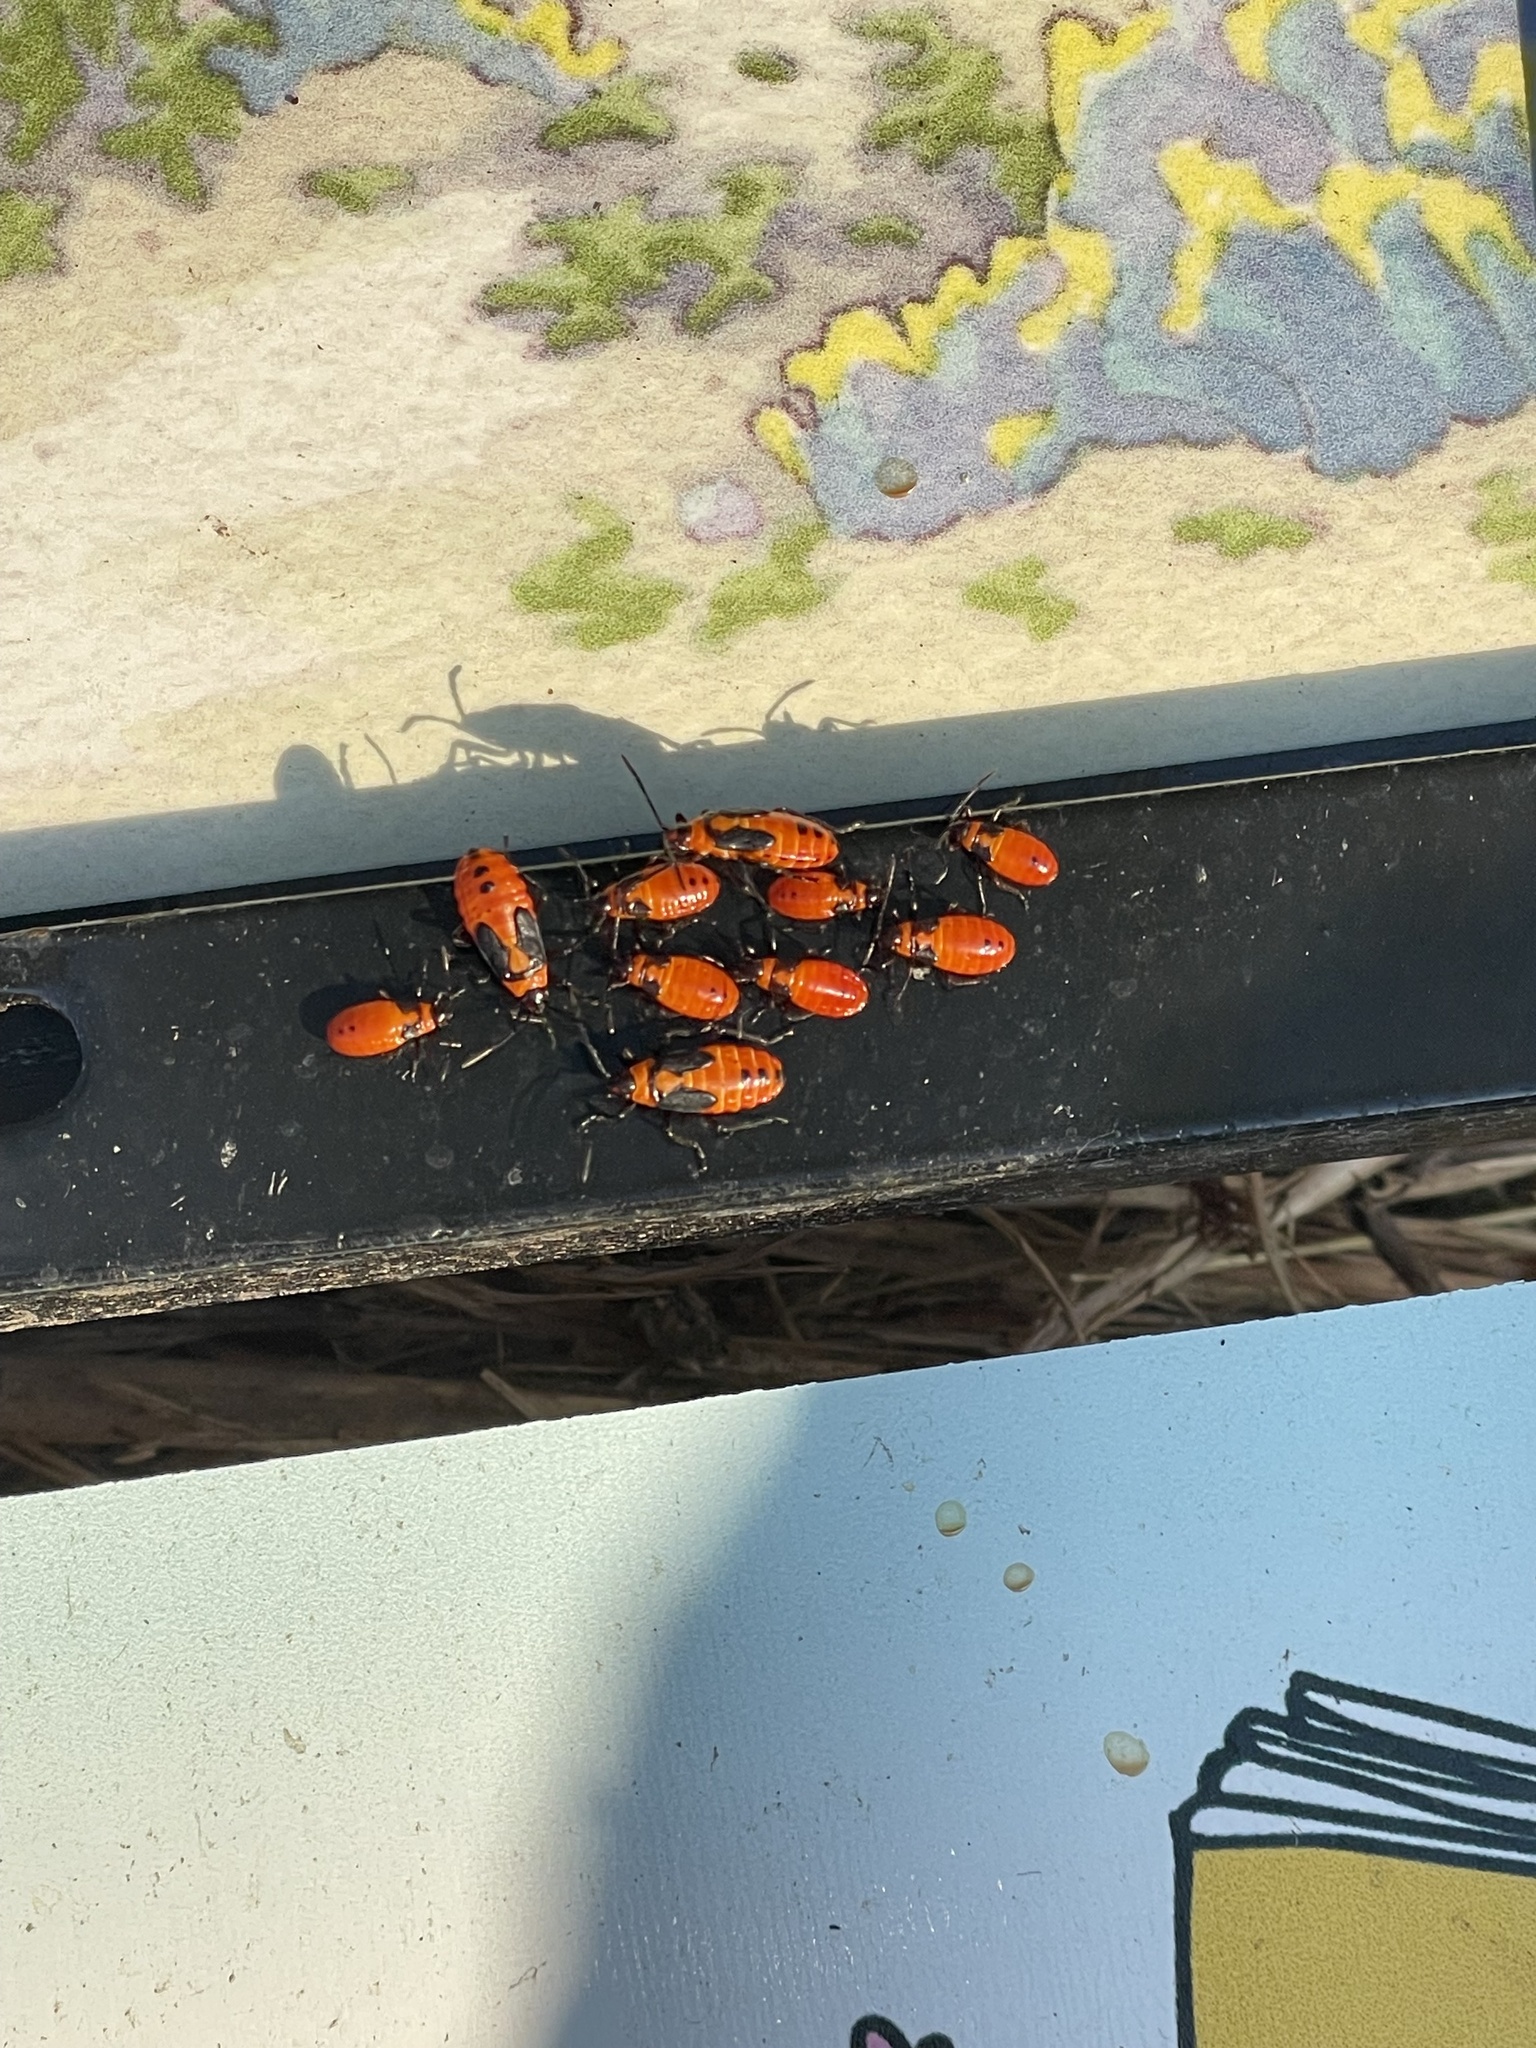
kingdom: Animalia
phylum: Arthropoda
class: Insecta
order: Hemiptera
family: Lygaeidae
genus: Oncopeltus
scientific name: Oncopeltus fasciatus
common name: Large milkweed bug
